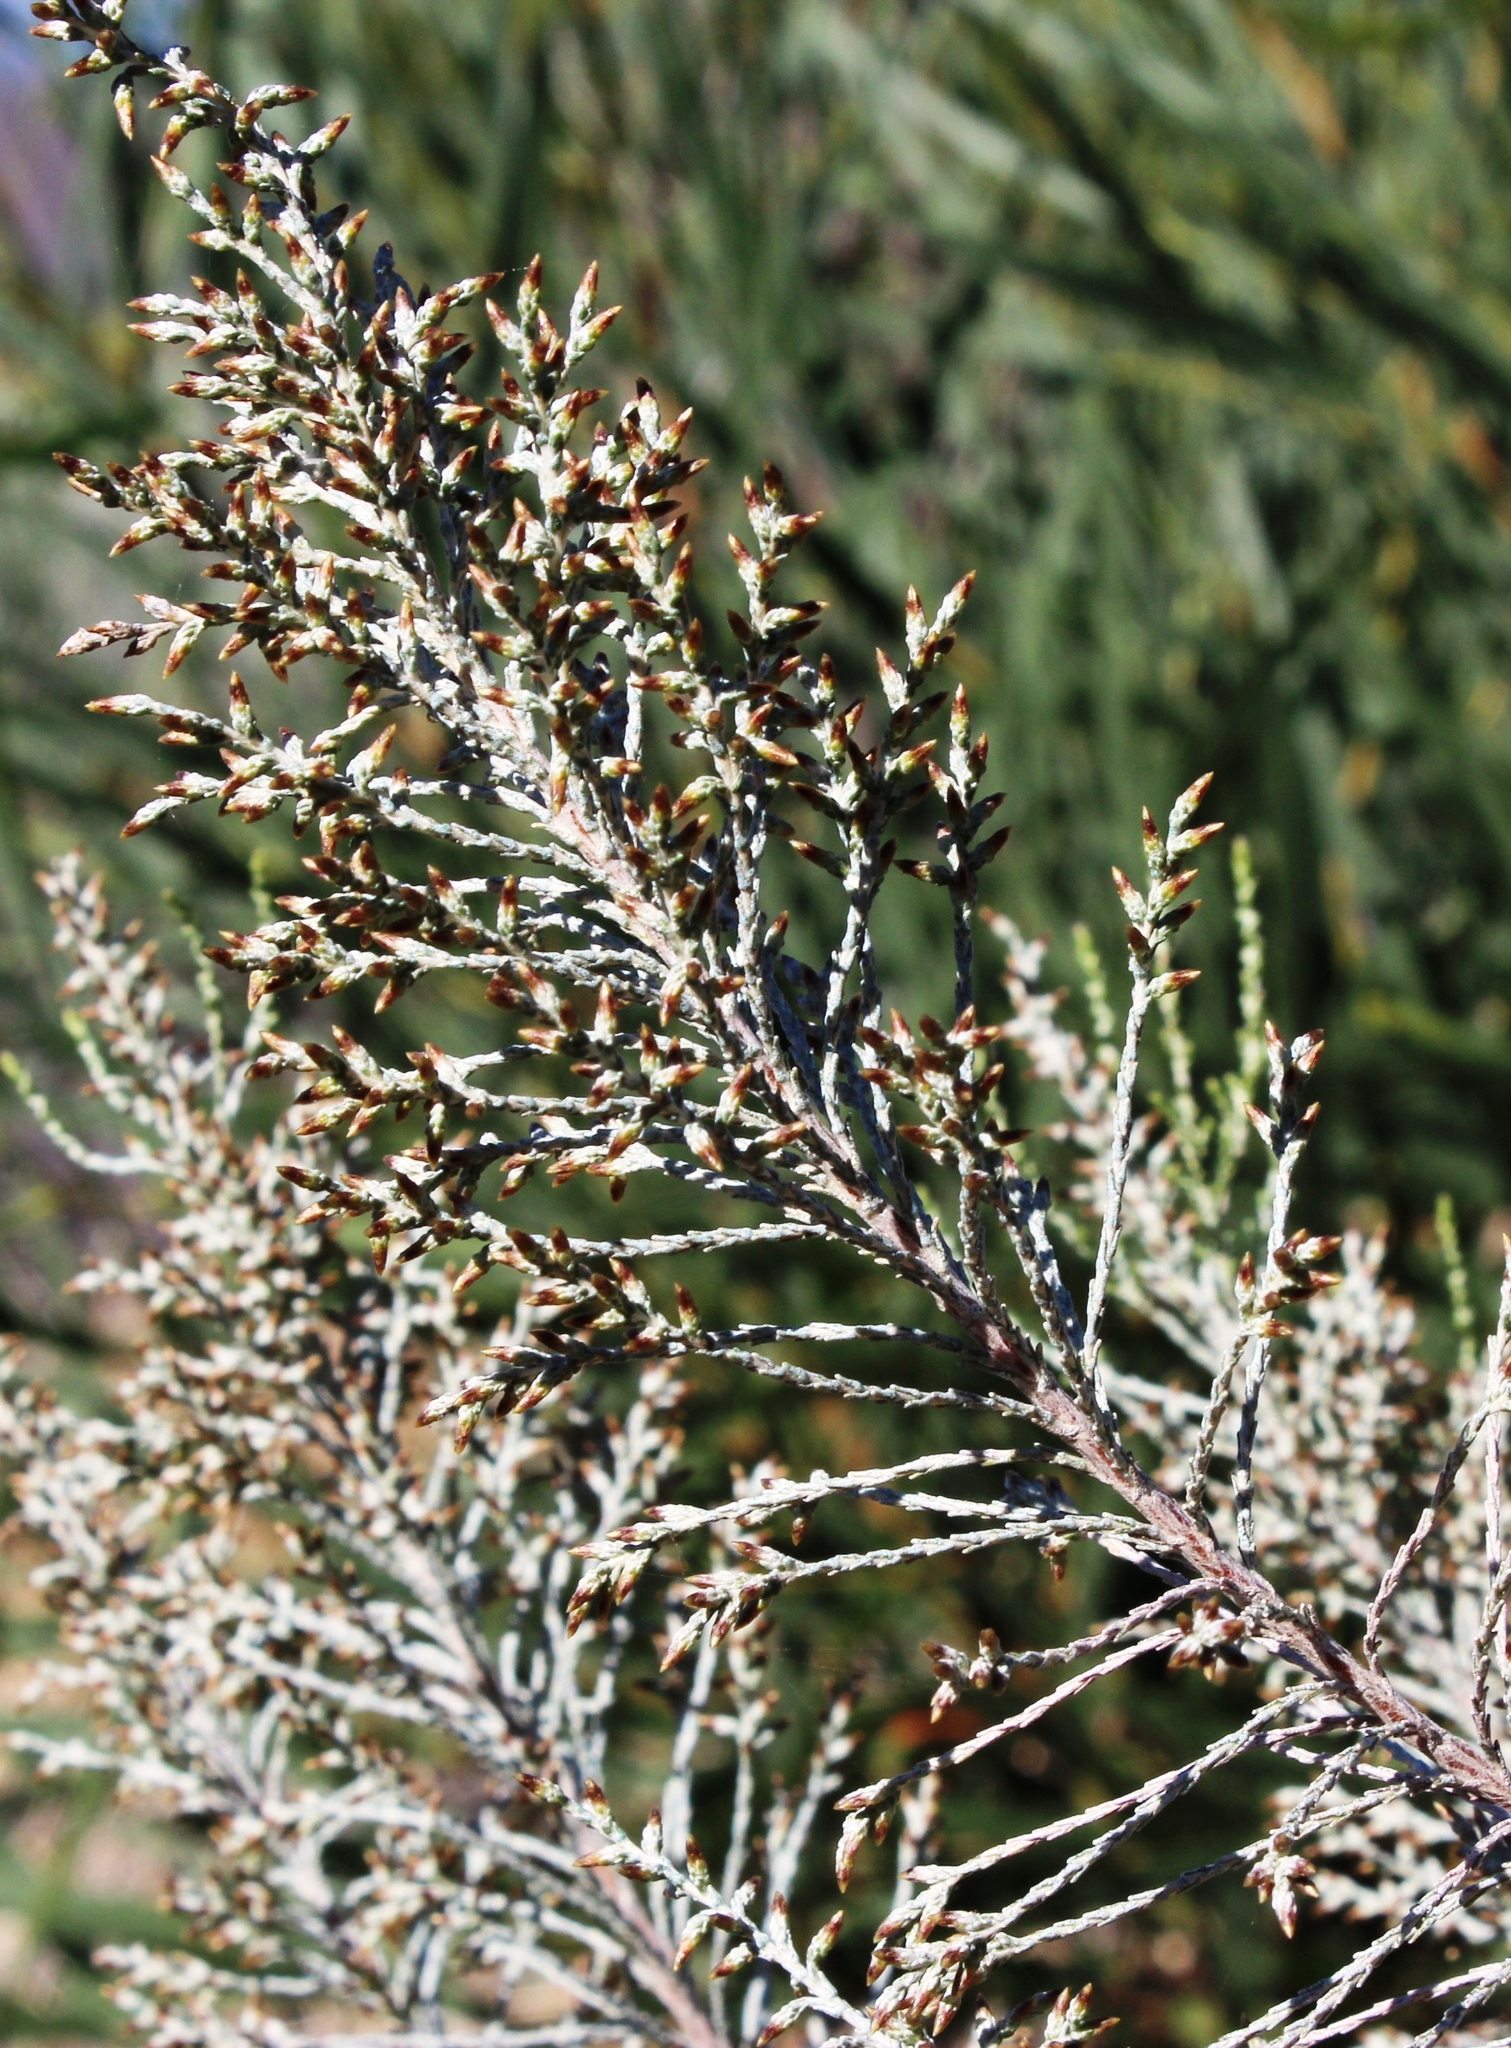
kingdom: Plantae
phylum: Tracheophyta
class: Magnoliopsida
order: Asterales
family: Asteraceae
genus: Dicerothamnus
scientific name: Dicerothamnus rhinocerotis
